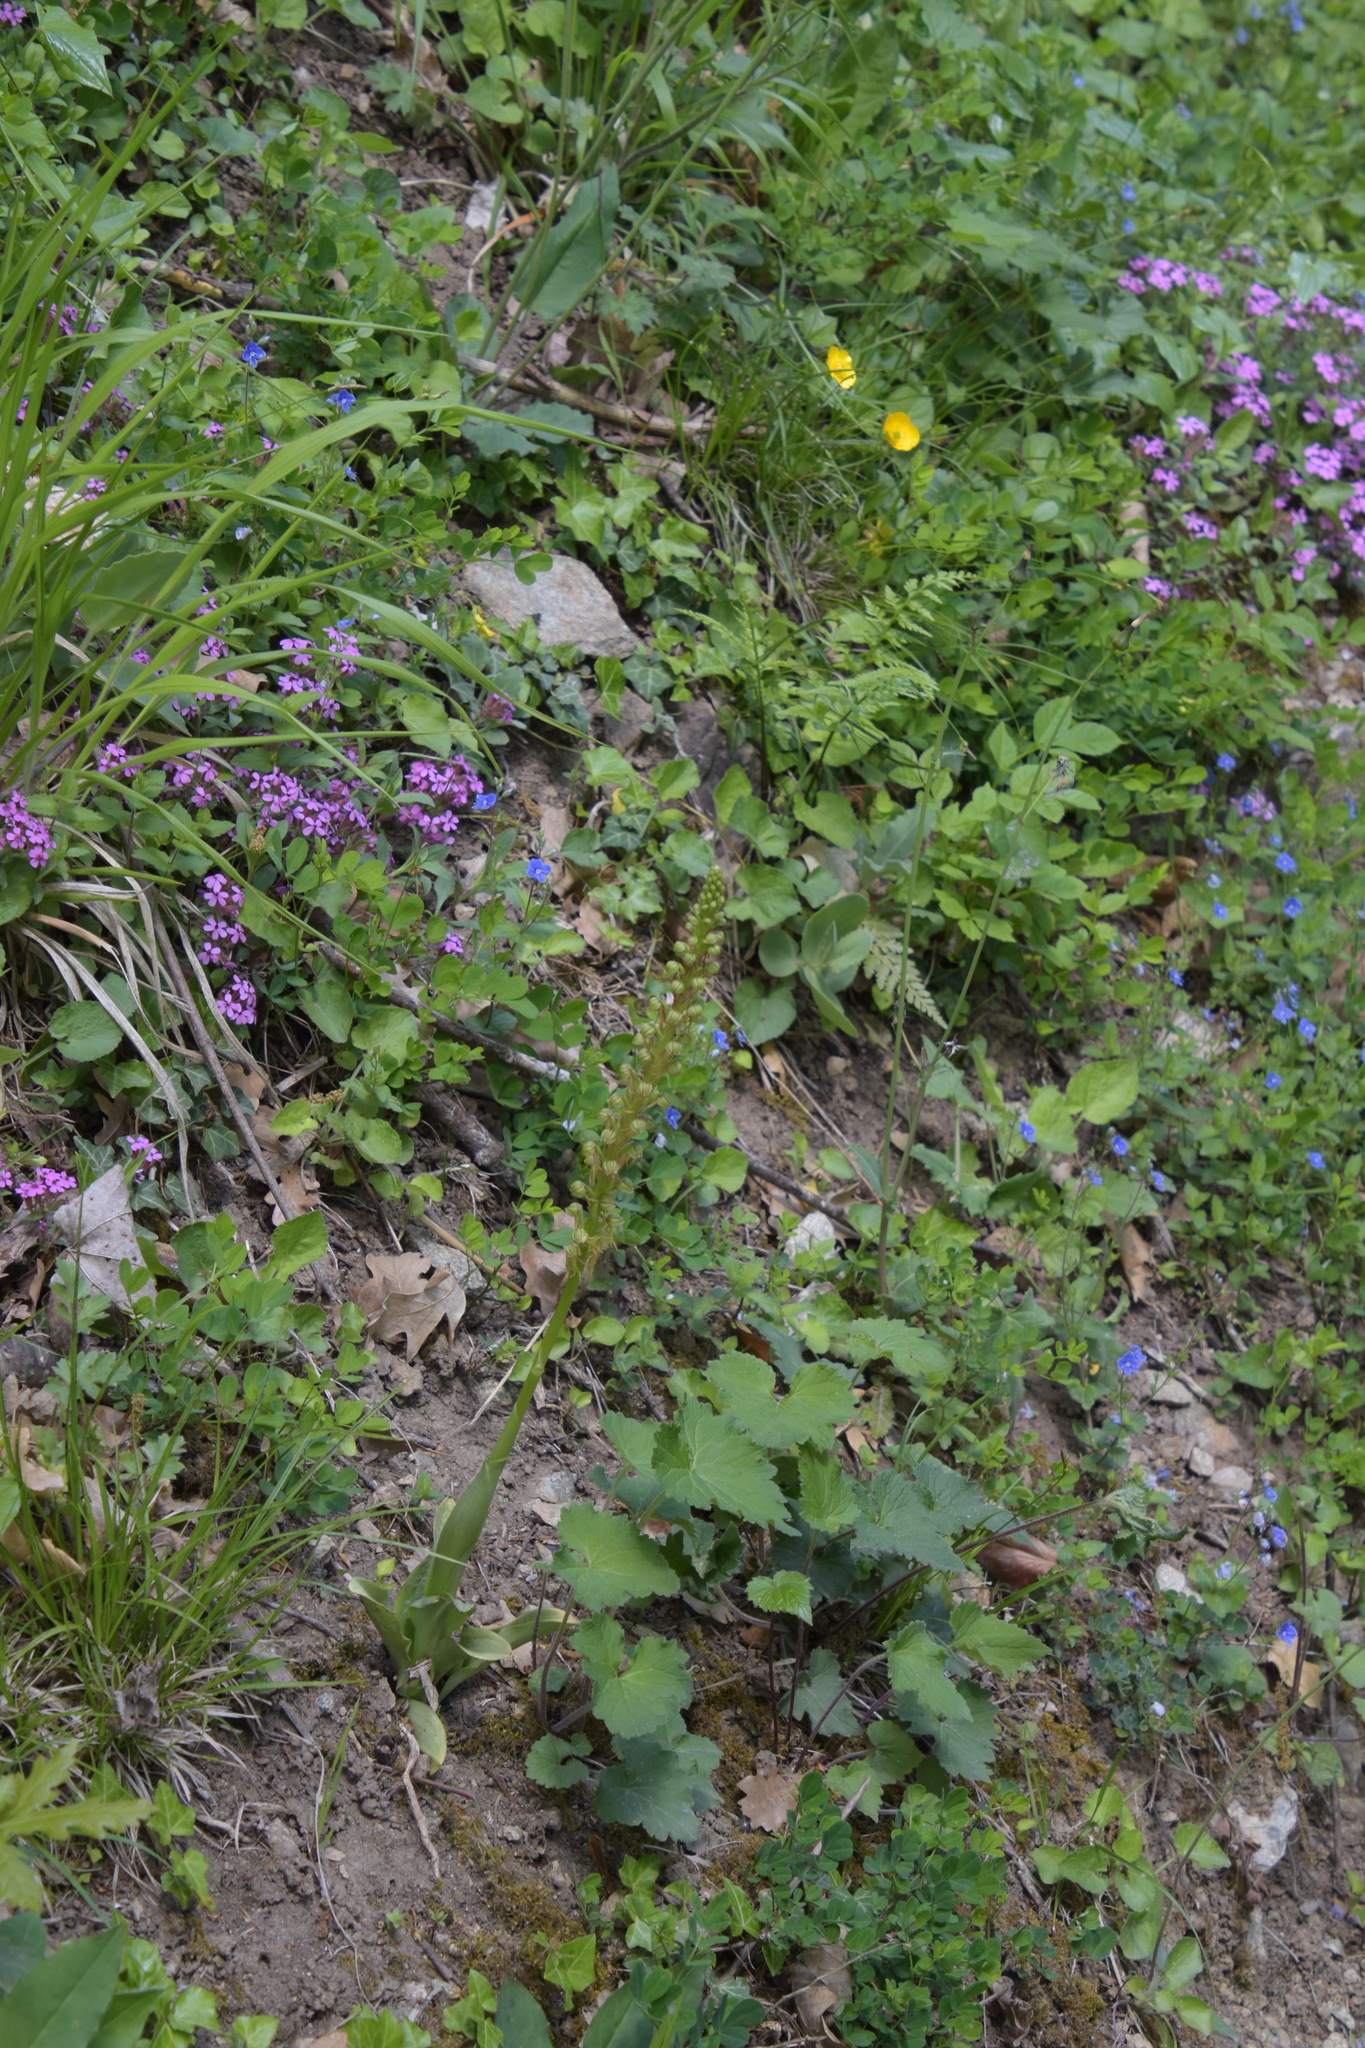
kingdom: Plantae
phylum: Tracheophyta
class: Liliopsida
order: Asparagales
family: Orchidaceae
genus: Orchis
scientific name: Orchis anthropophora
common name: Man orchid
